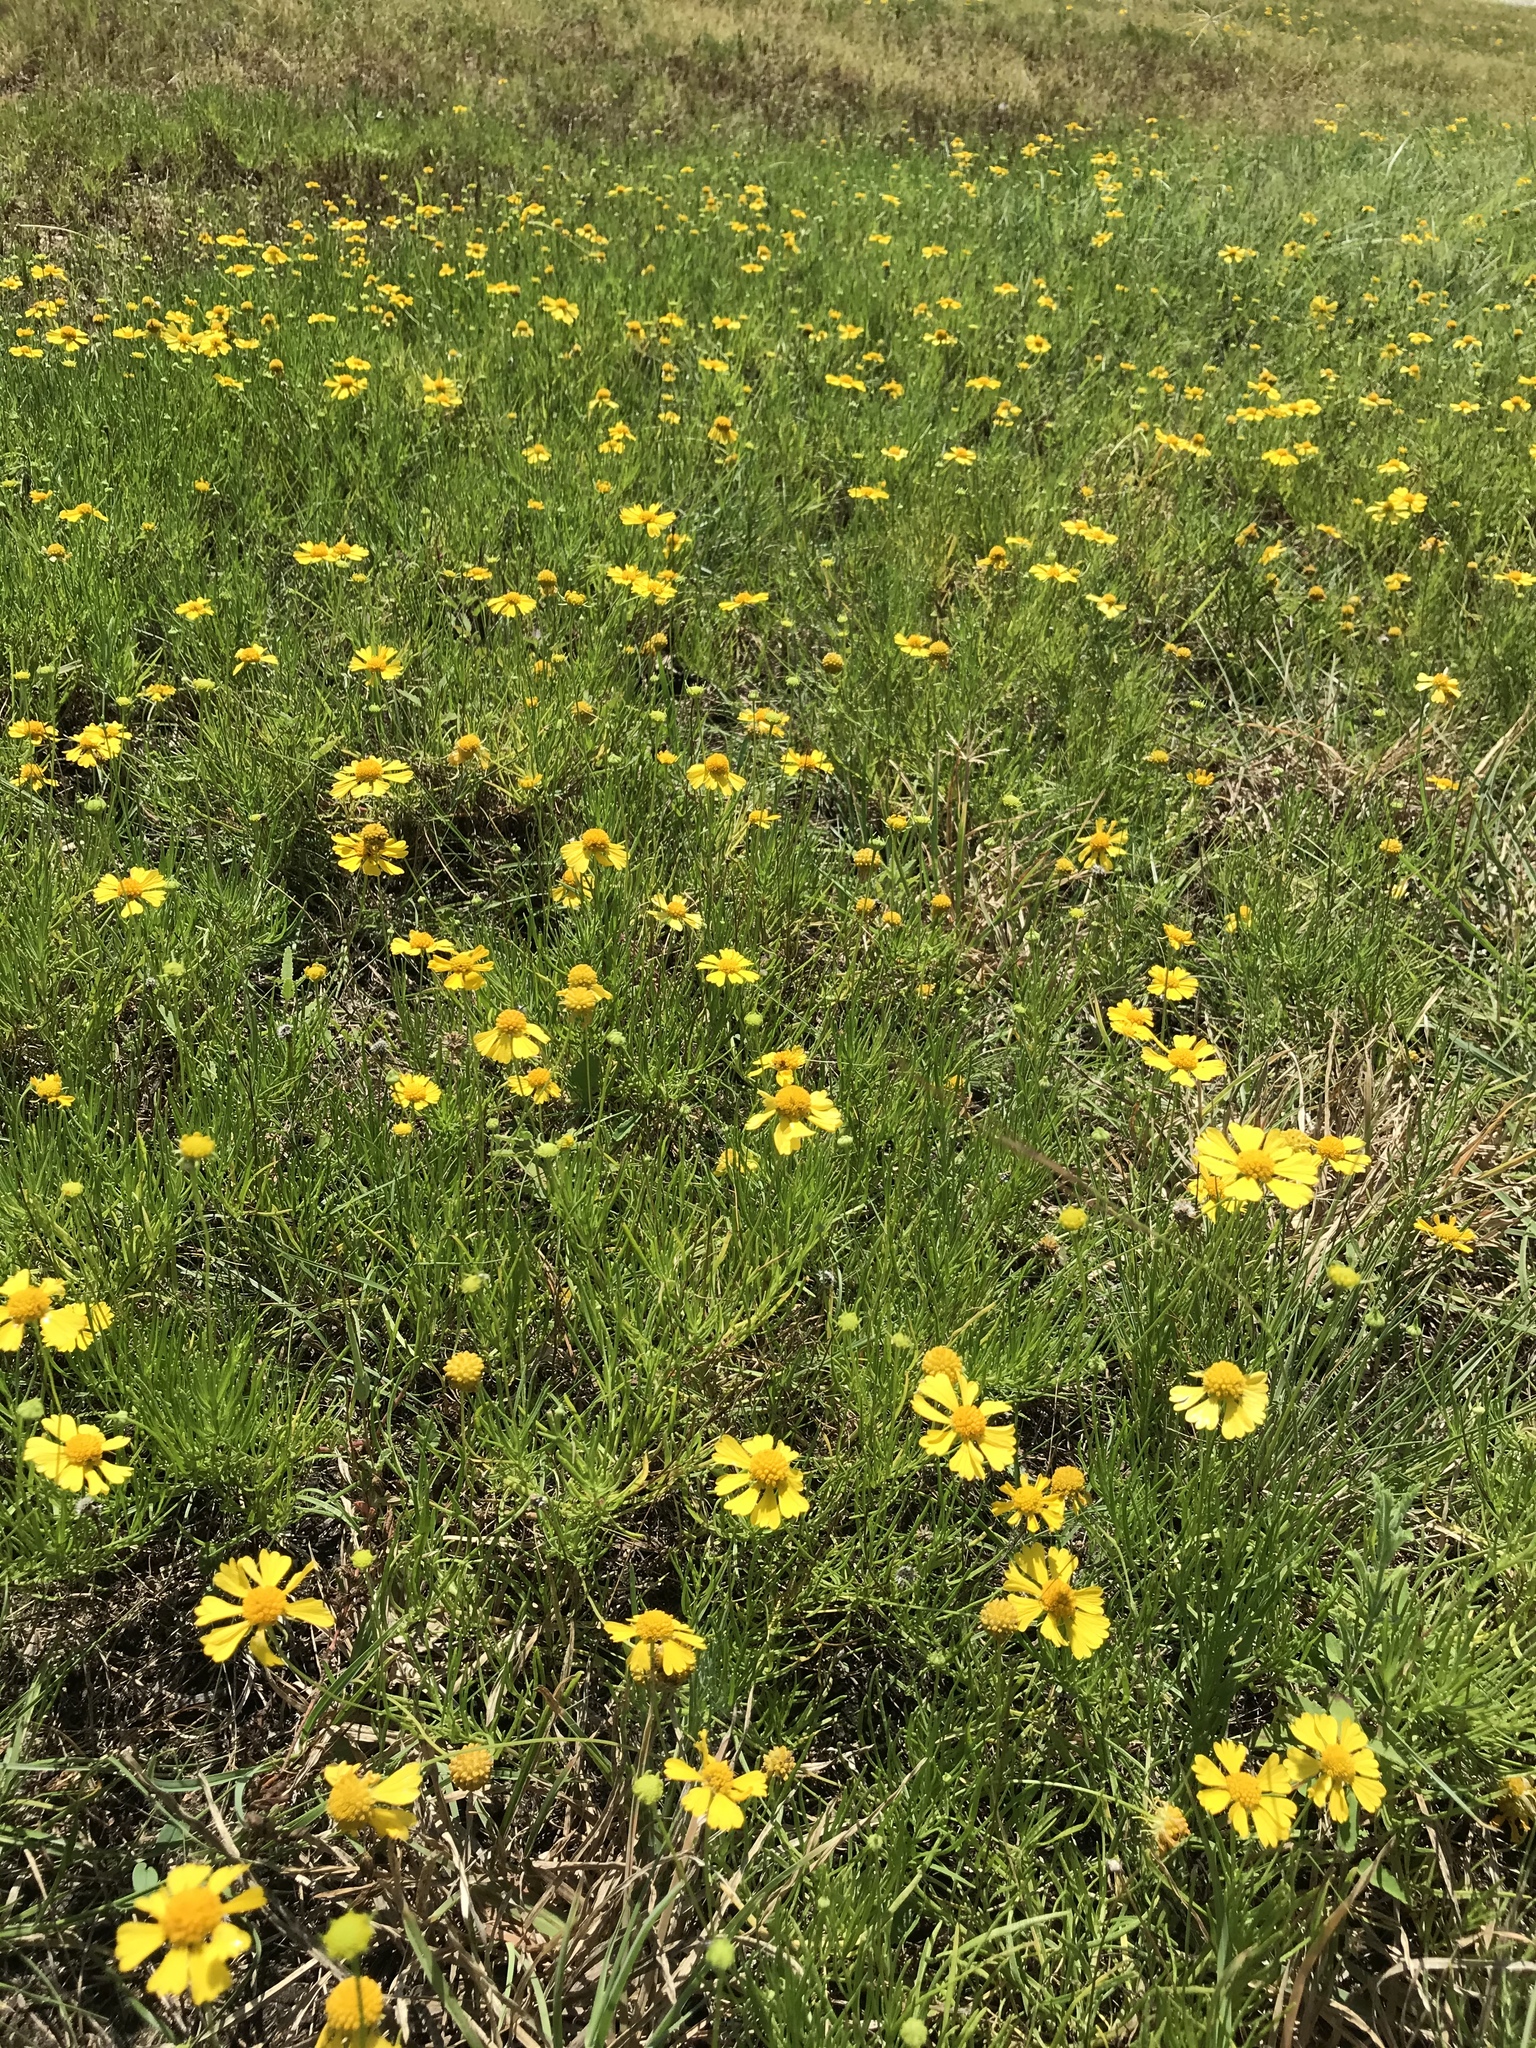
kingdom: Plantae
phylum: Tracheophyta
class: Magnoliopsida
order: Asterales
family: Asteraceae
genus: Helenium
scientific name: Helenium amarum
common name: Bitter sneezeweed
